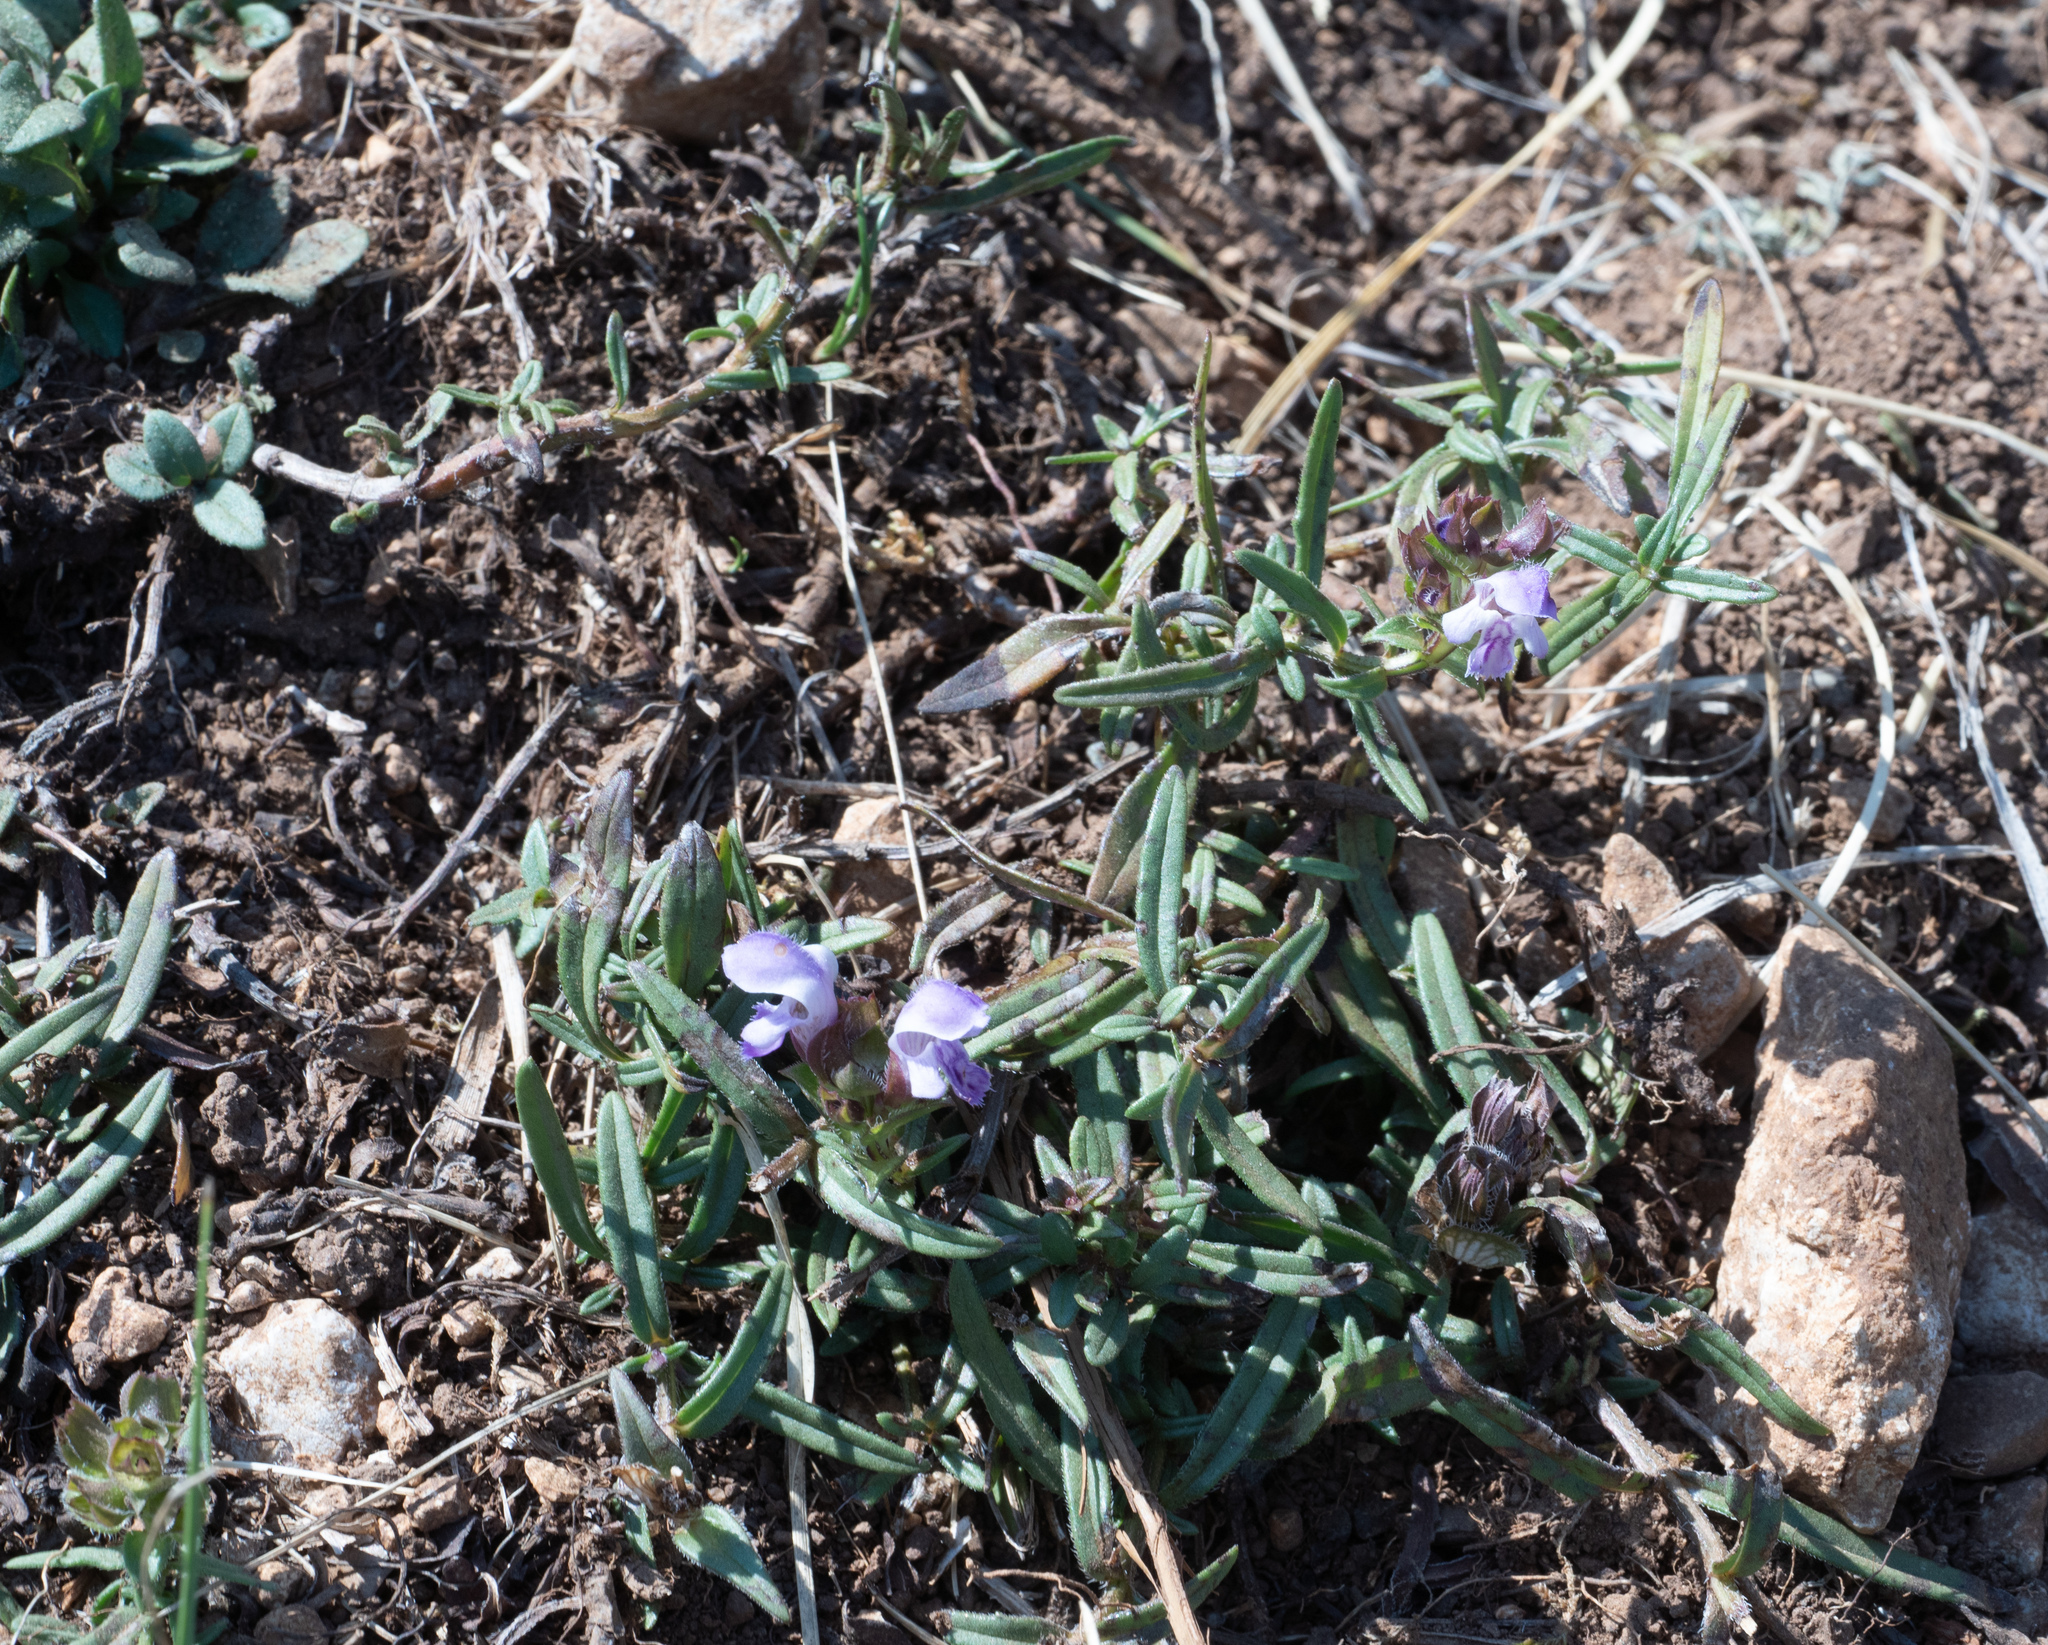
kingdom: Plantae
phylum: Tracheophyta
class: Magnoliopsida
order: Lamiales
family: Lamiaceae
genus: Prunella
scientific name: Prunella hyssopifolia
